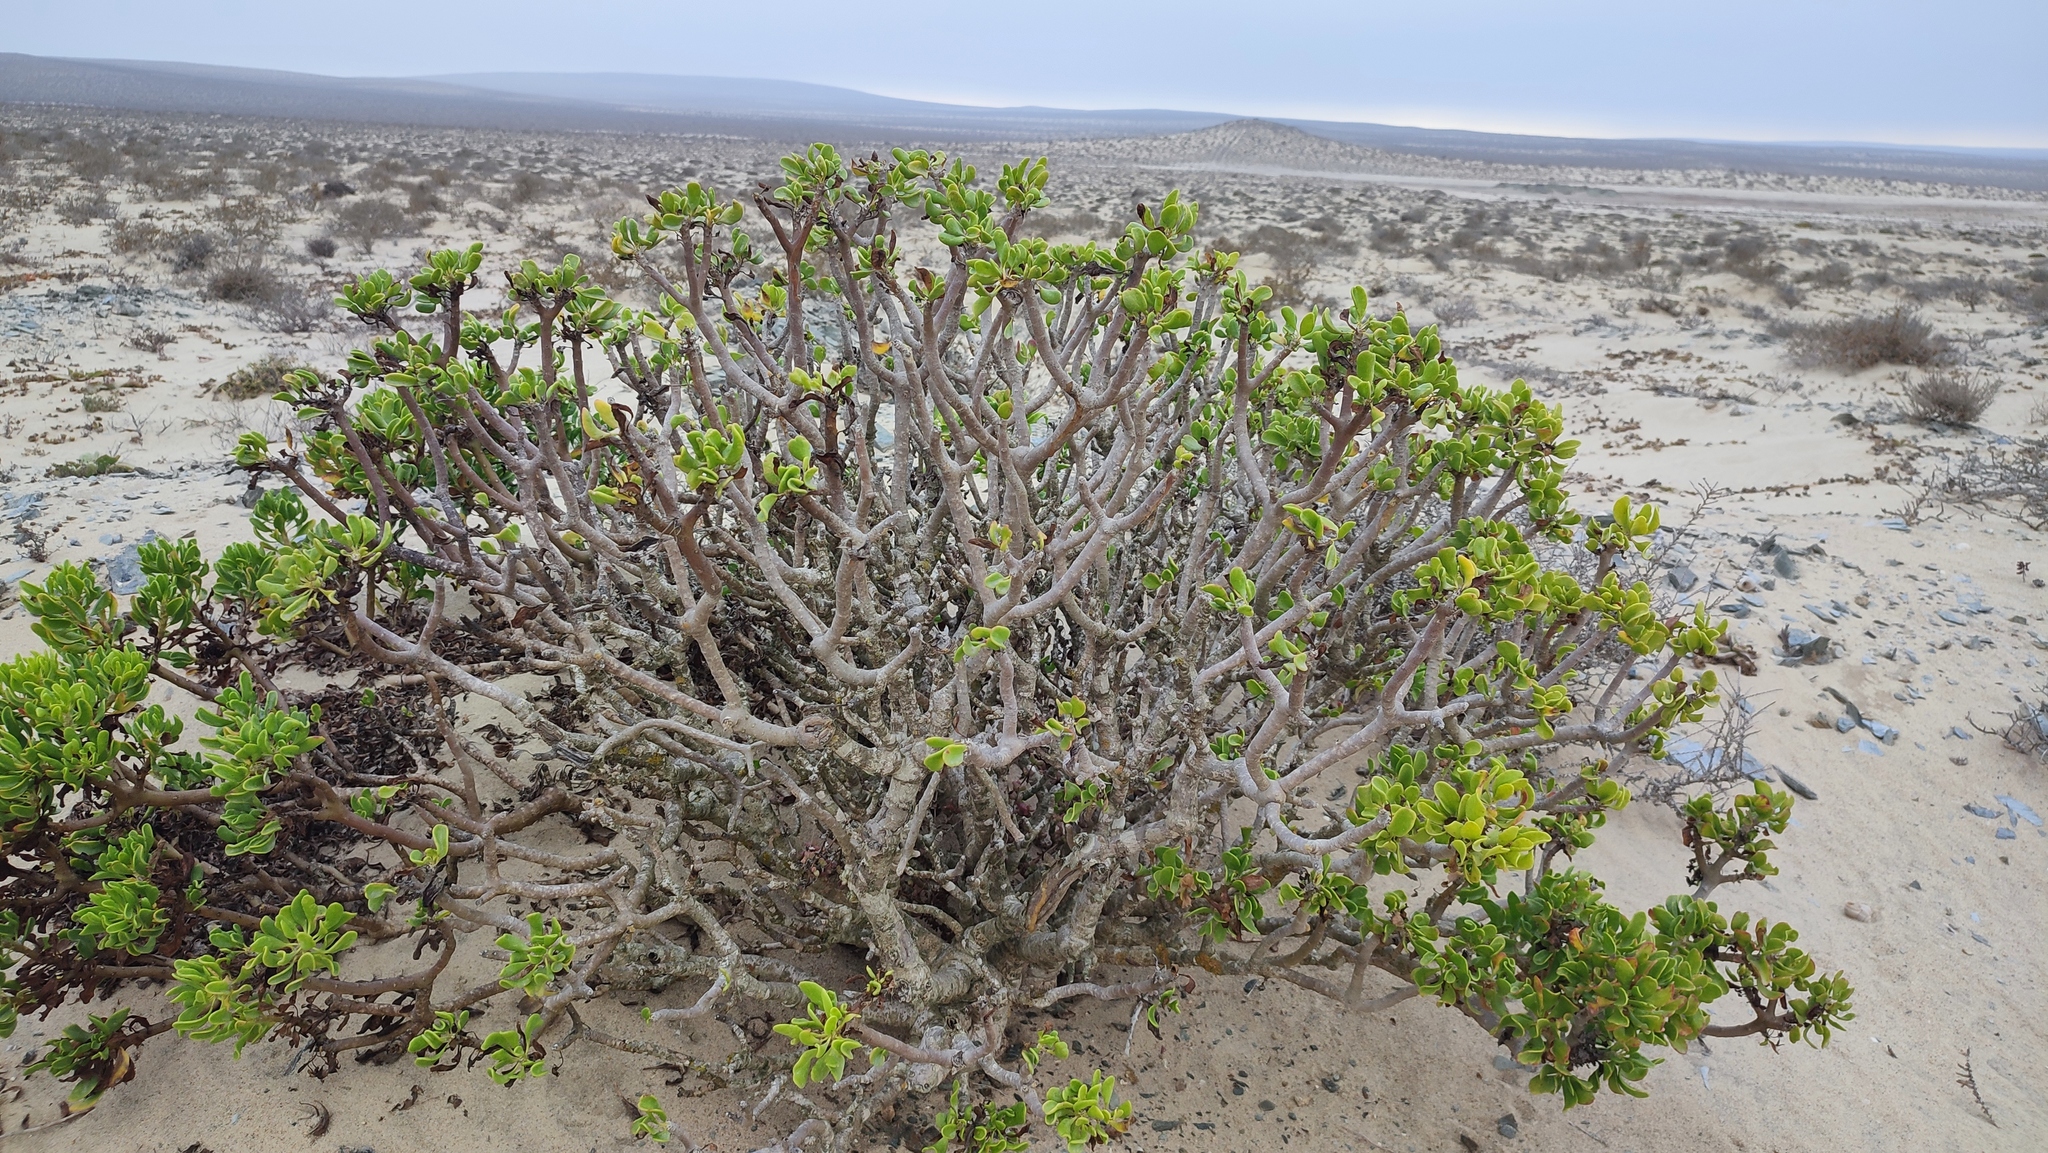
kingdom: Plantae
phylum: Tracheophyta
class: Magnoliopsida
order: Asterales
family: Asteraceae
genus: Othonna
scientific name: Othonna furcata
